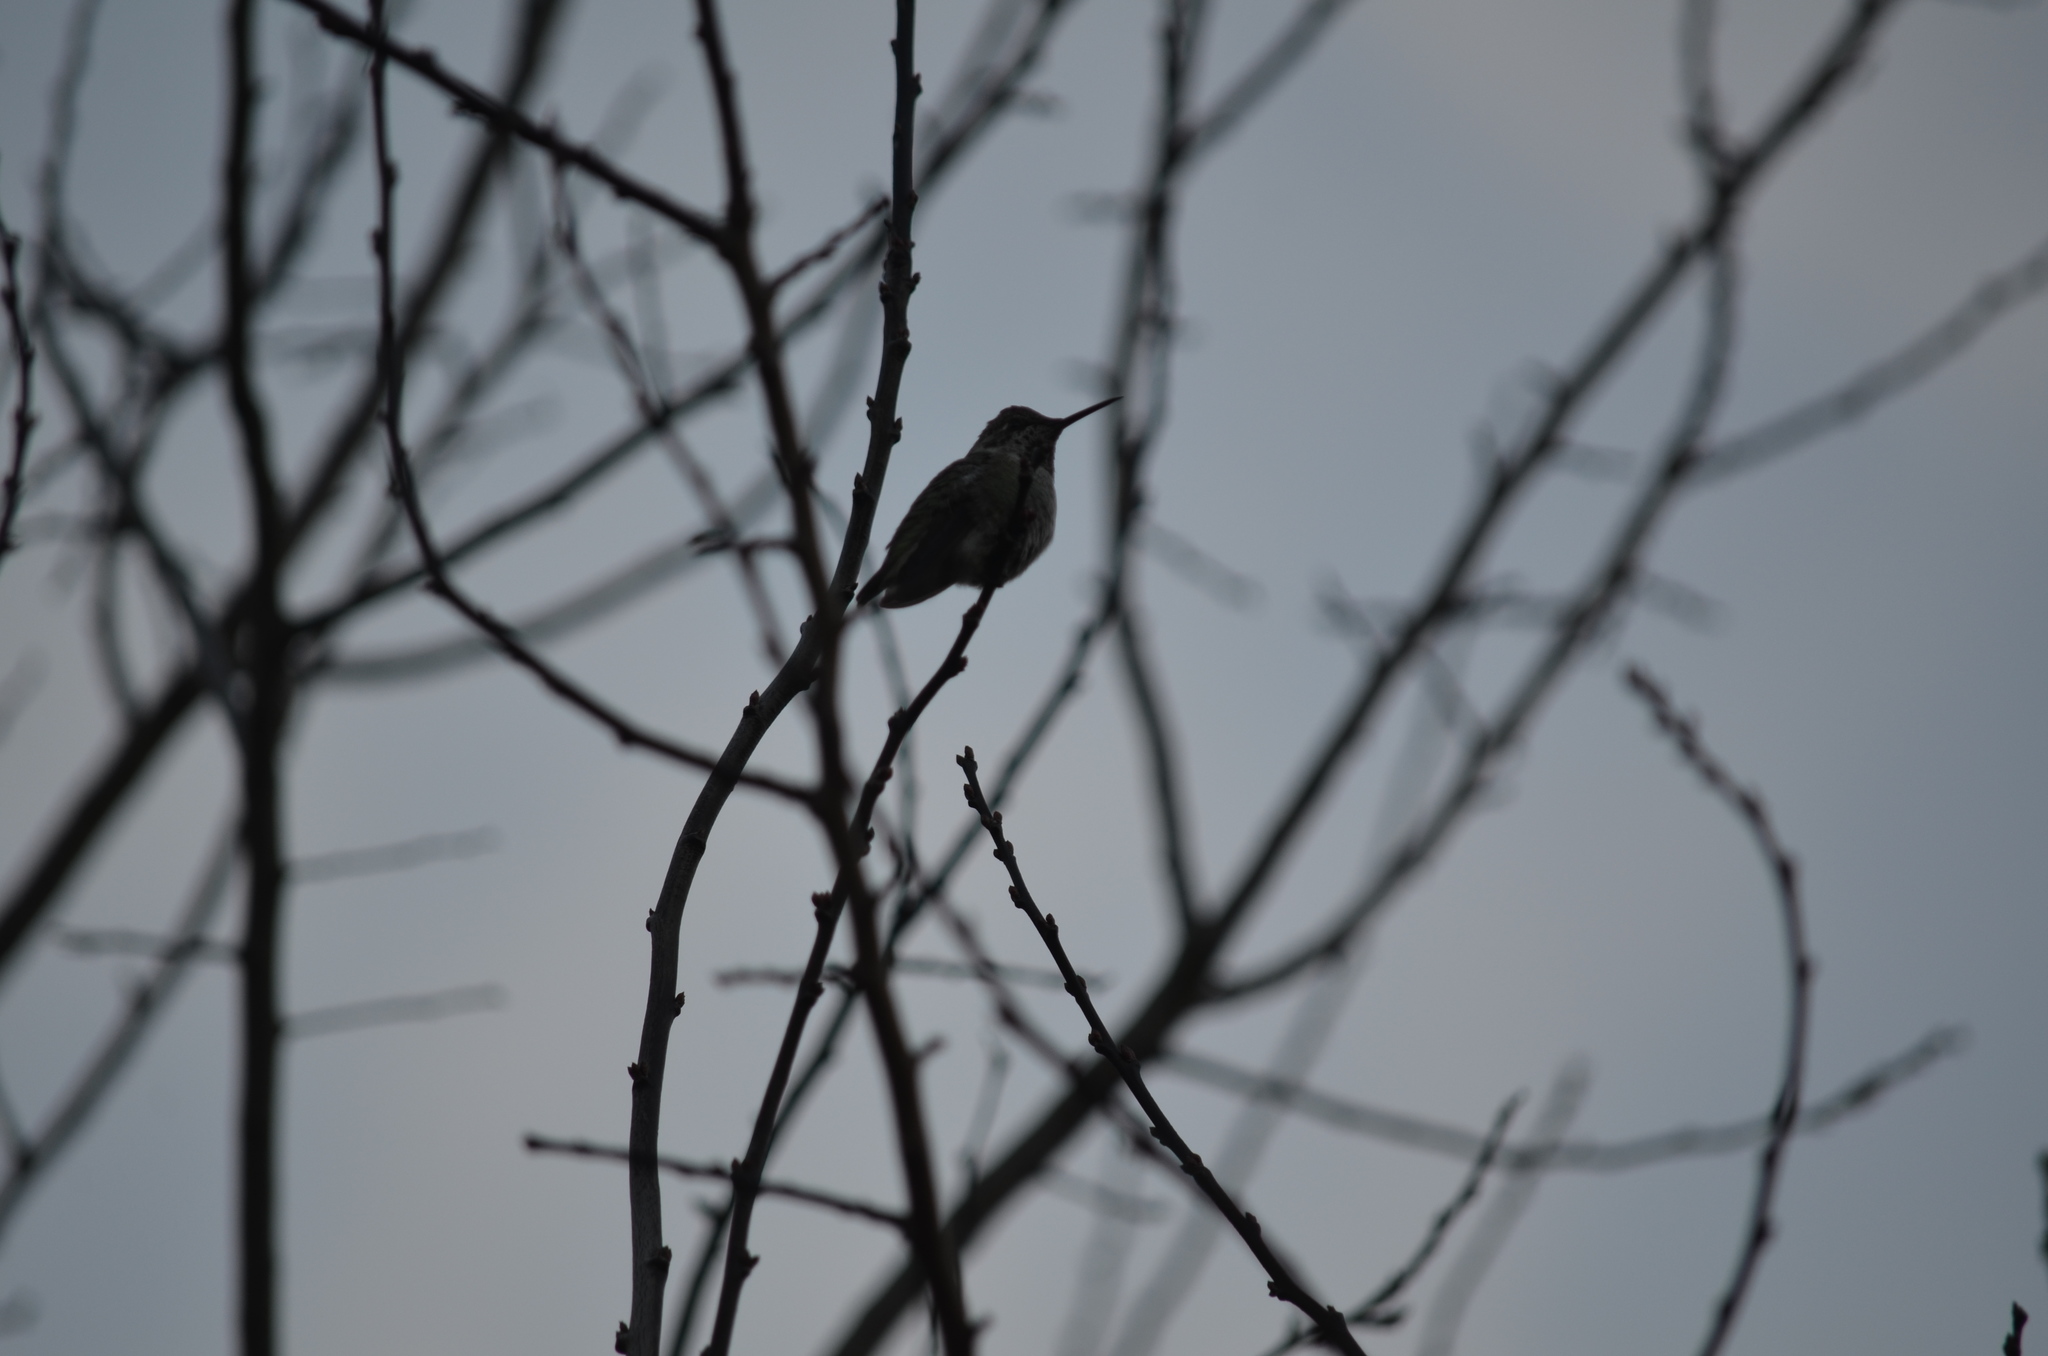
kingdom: Animalia
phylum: Chordata
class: Aves
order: Apodiformes
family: Trochilidae
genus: Calypte
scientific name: Calypte anna
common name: Anna's hummingbird
